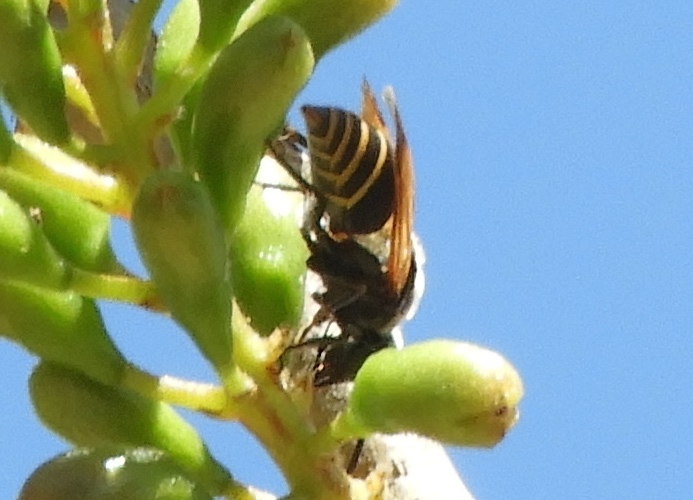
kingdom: Animalia
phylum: Arthropoda
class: Insecta
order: Hymenoptera
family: Vespidae
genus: Brachygastra
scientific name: Brachygastra mellifica
